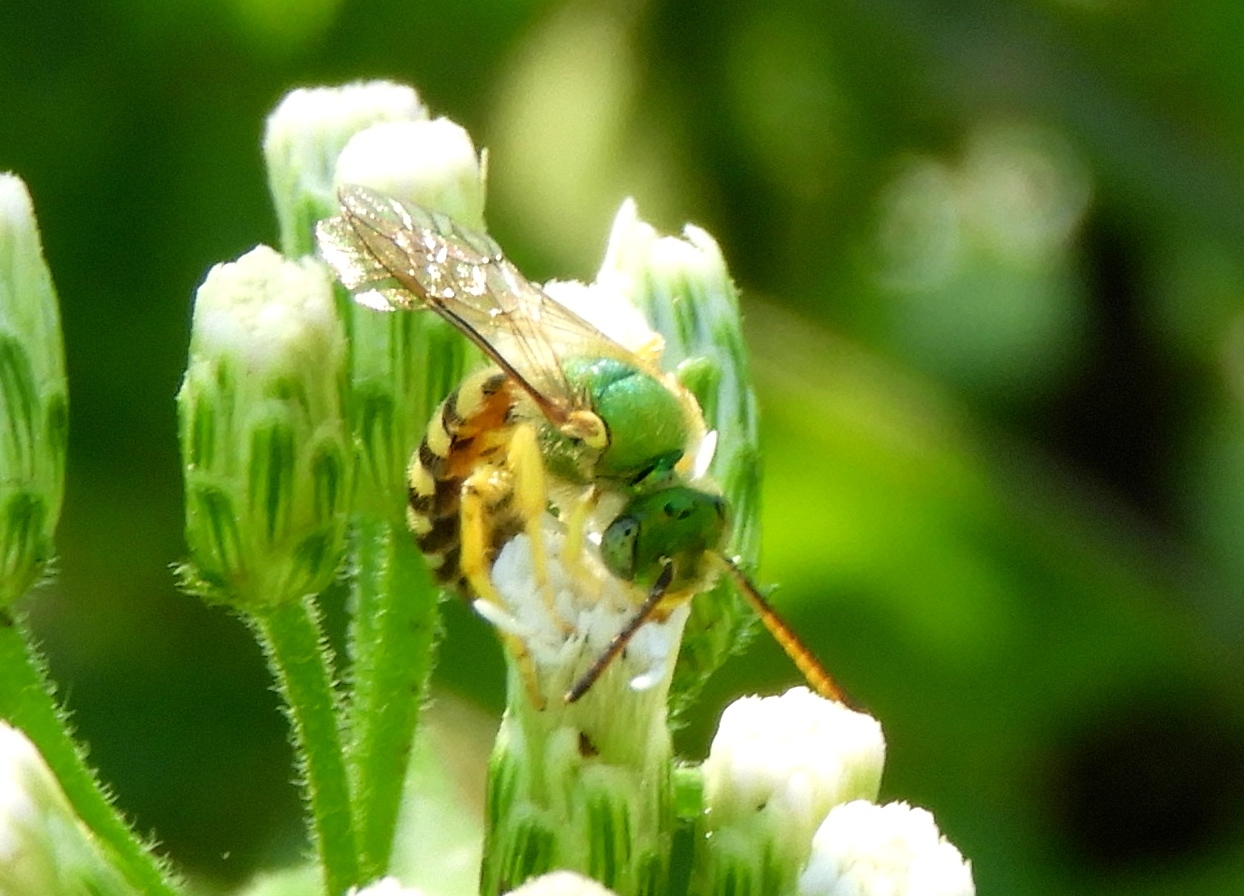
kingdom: Animalia
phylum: Arthropoda
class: Insecta
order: Hymenoptera
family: Halictidae
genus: Agapostemon
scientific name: Agapostemon nasutus
